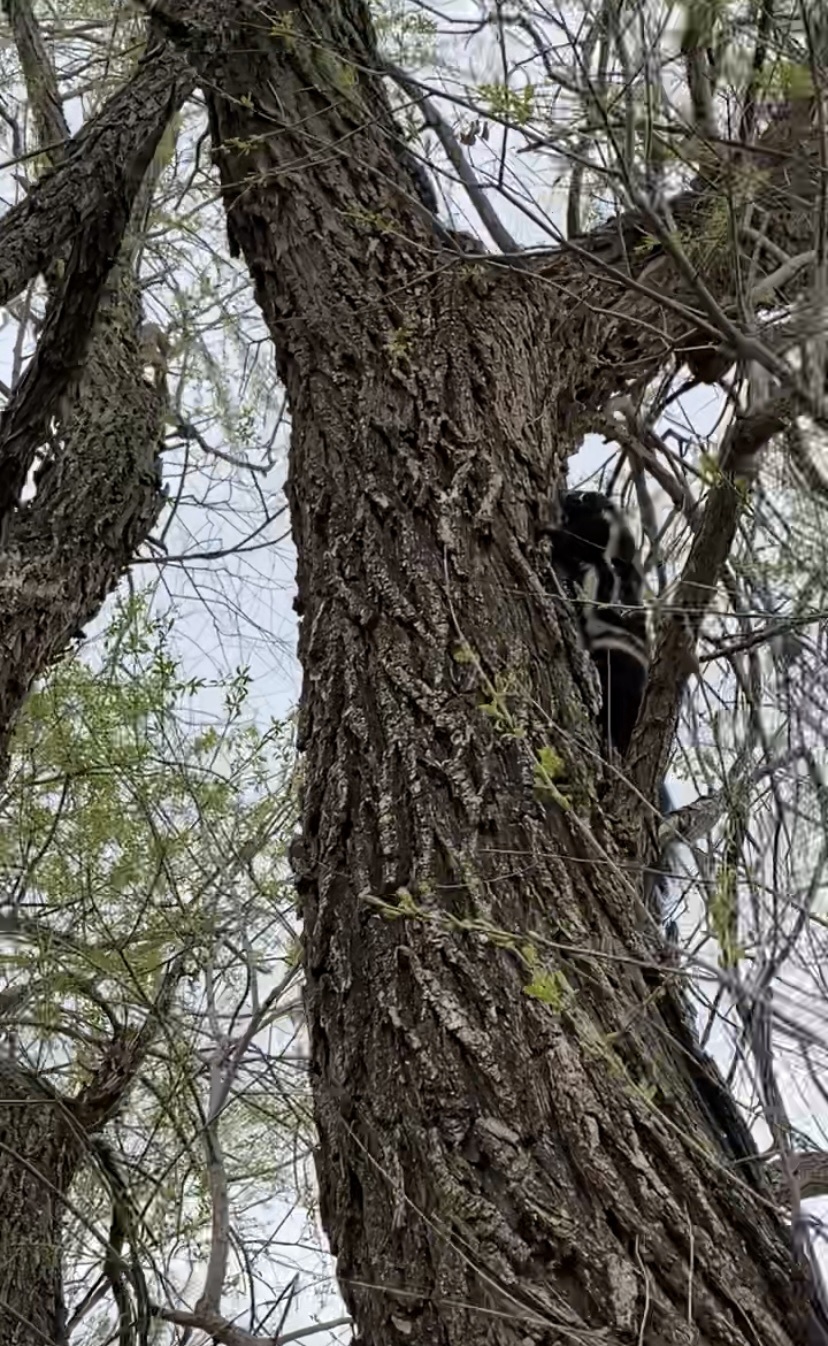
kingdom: Animalia
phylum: Chordata
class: Mammalia
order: Carnivora
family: Mephitidae
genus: Spilogale
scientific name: Spilogale interrupta
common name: Prairie spotted skunk
